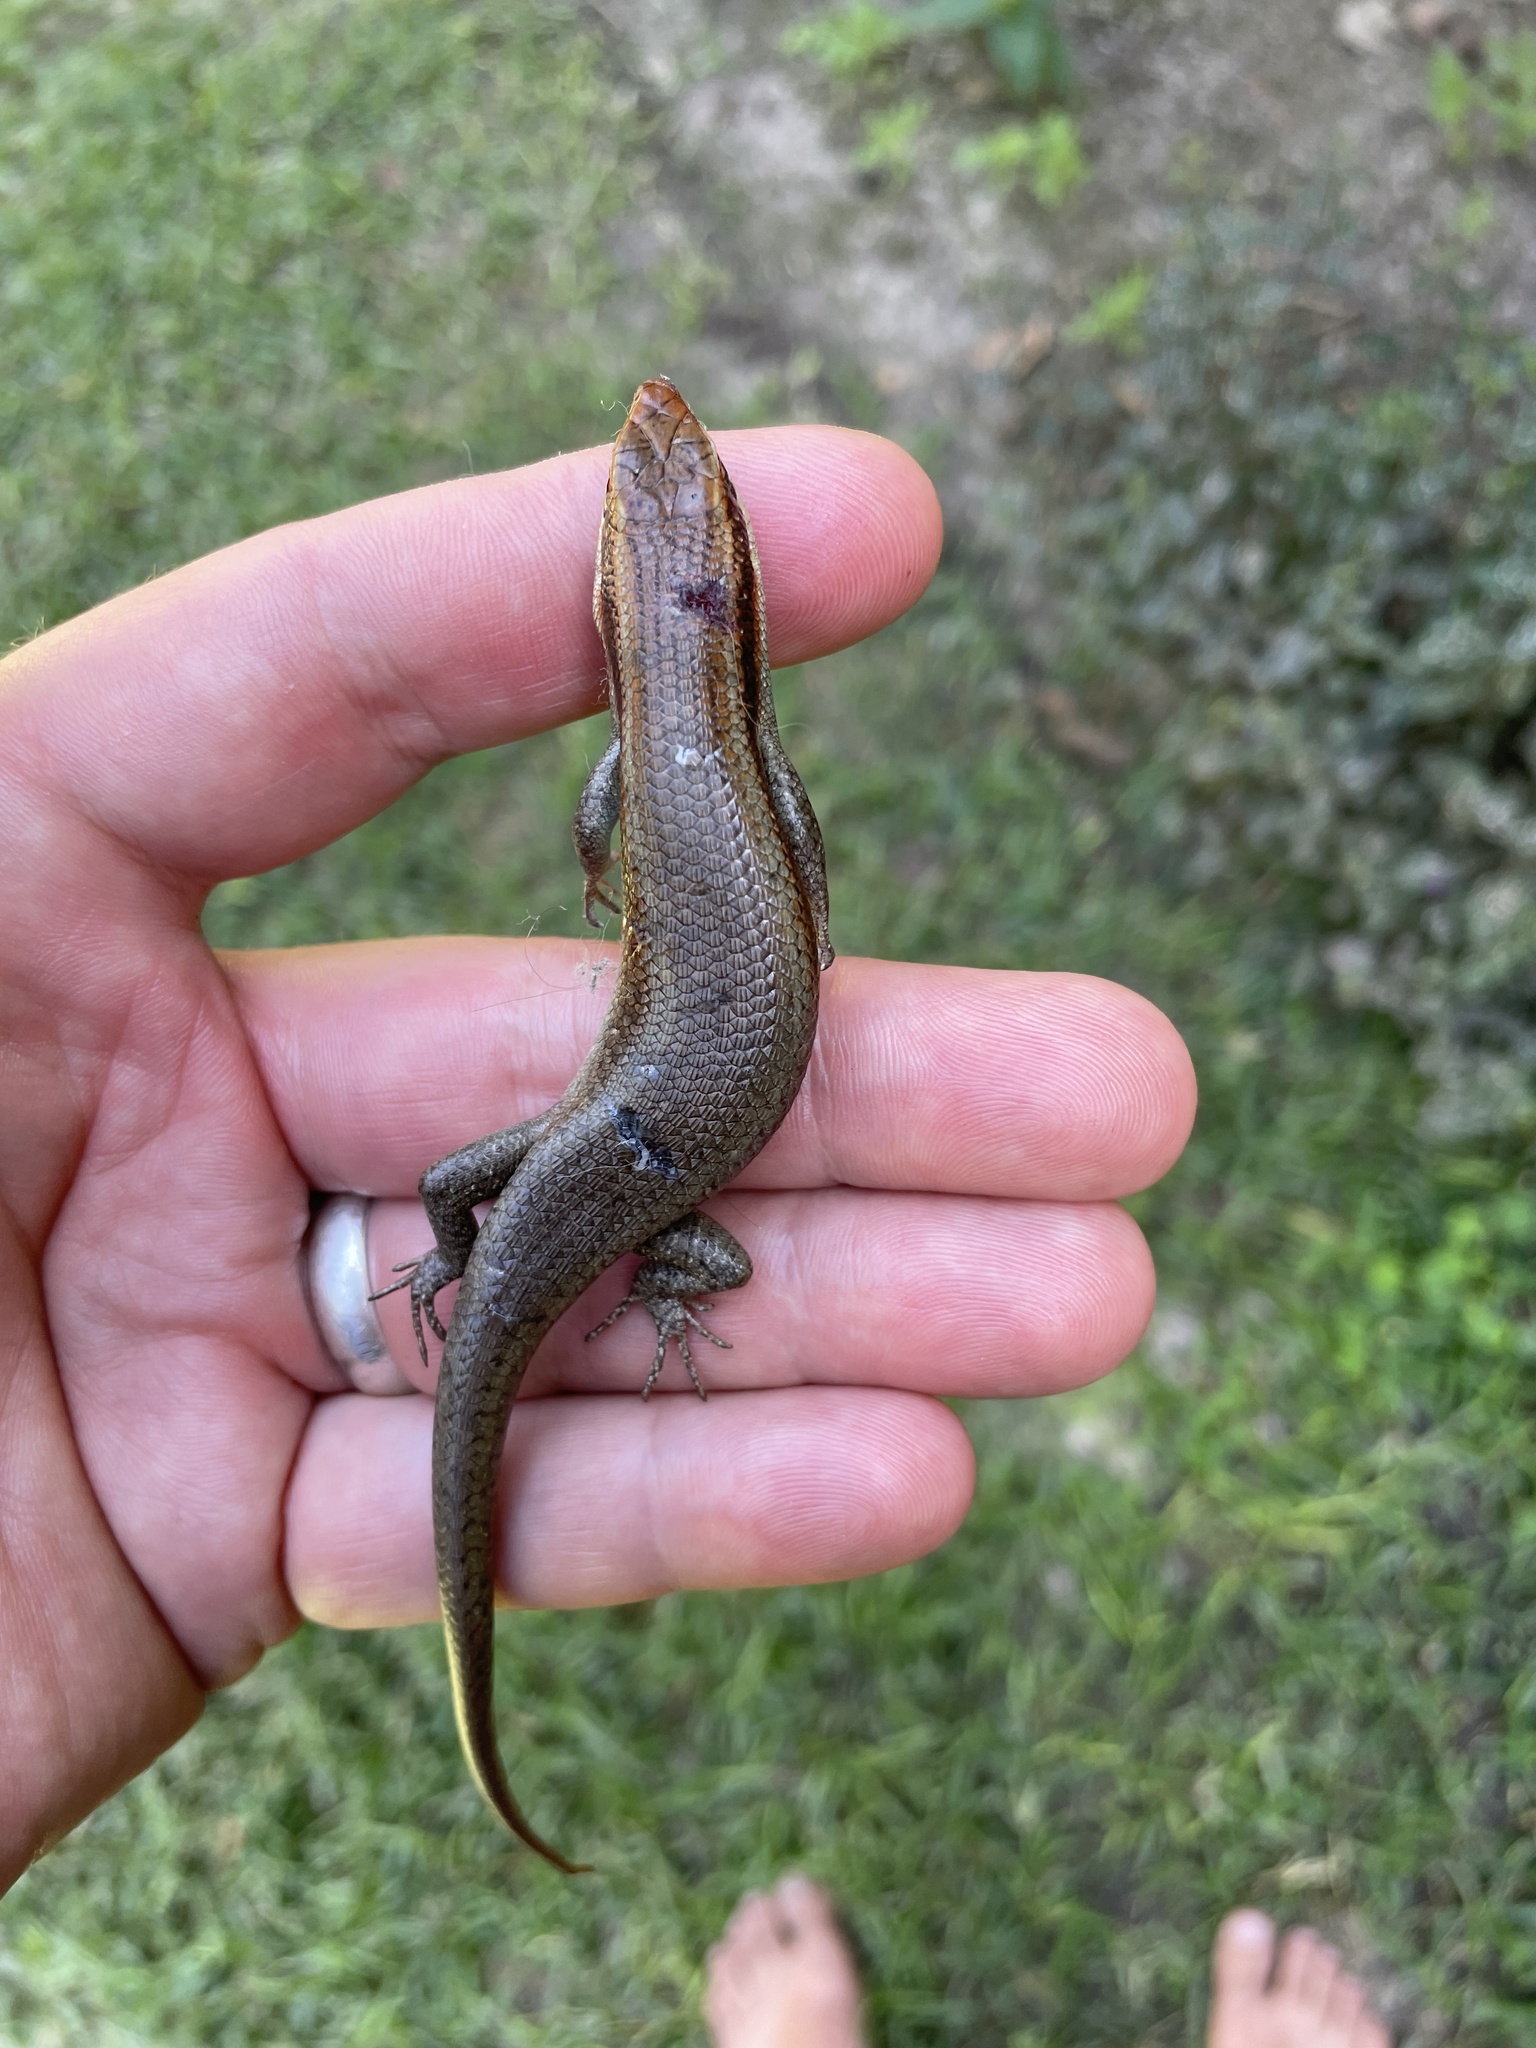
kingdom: Animalia
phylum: Chordata
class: Squamata
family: Scincidae
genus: Trachylepis
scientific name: Trachylepis wahlbergii
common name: Wahlberg’s striped skink
